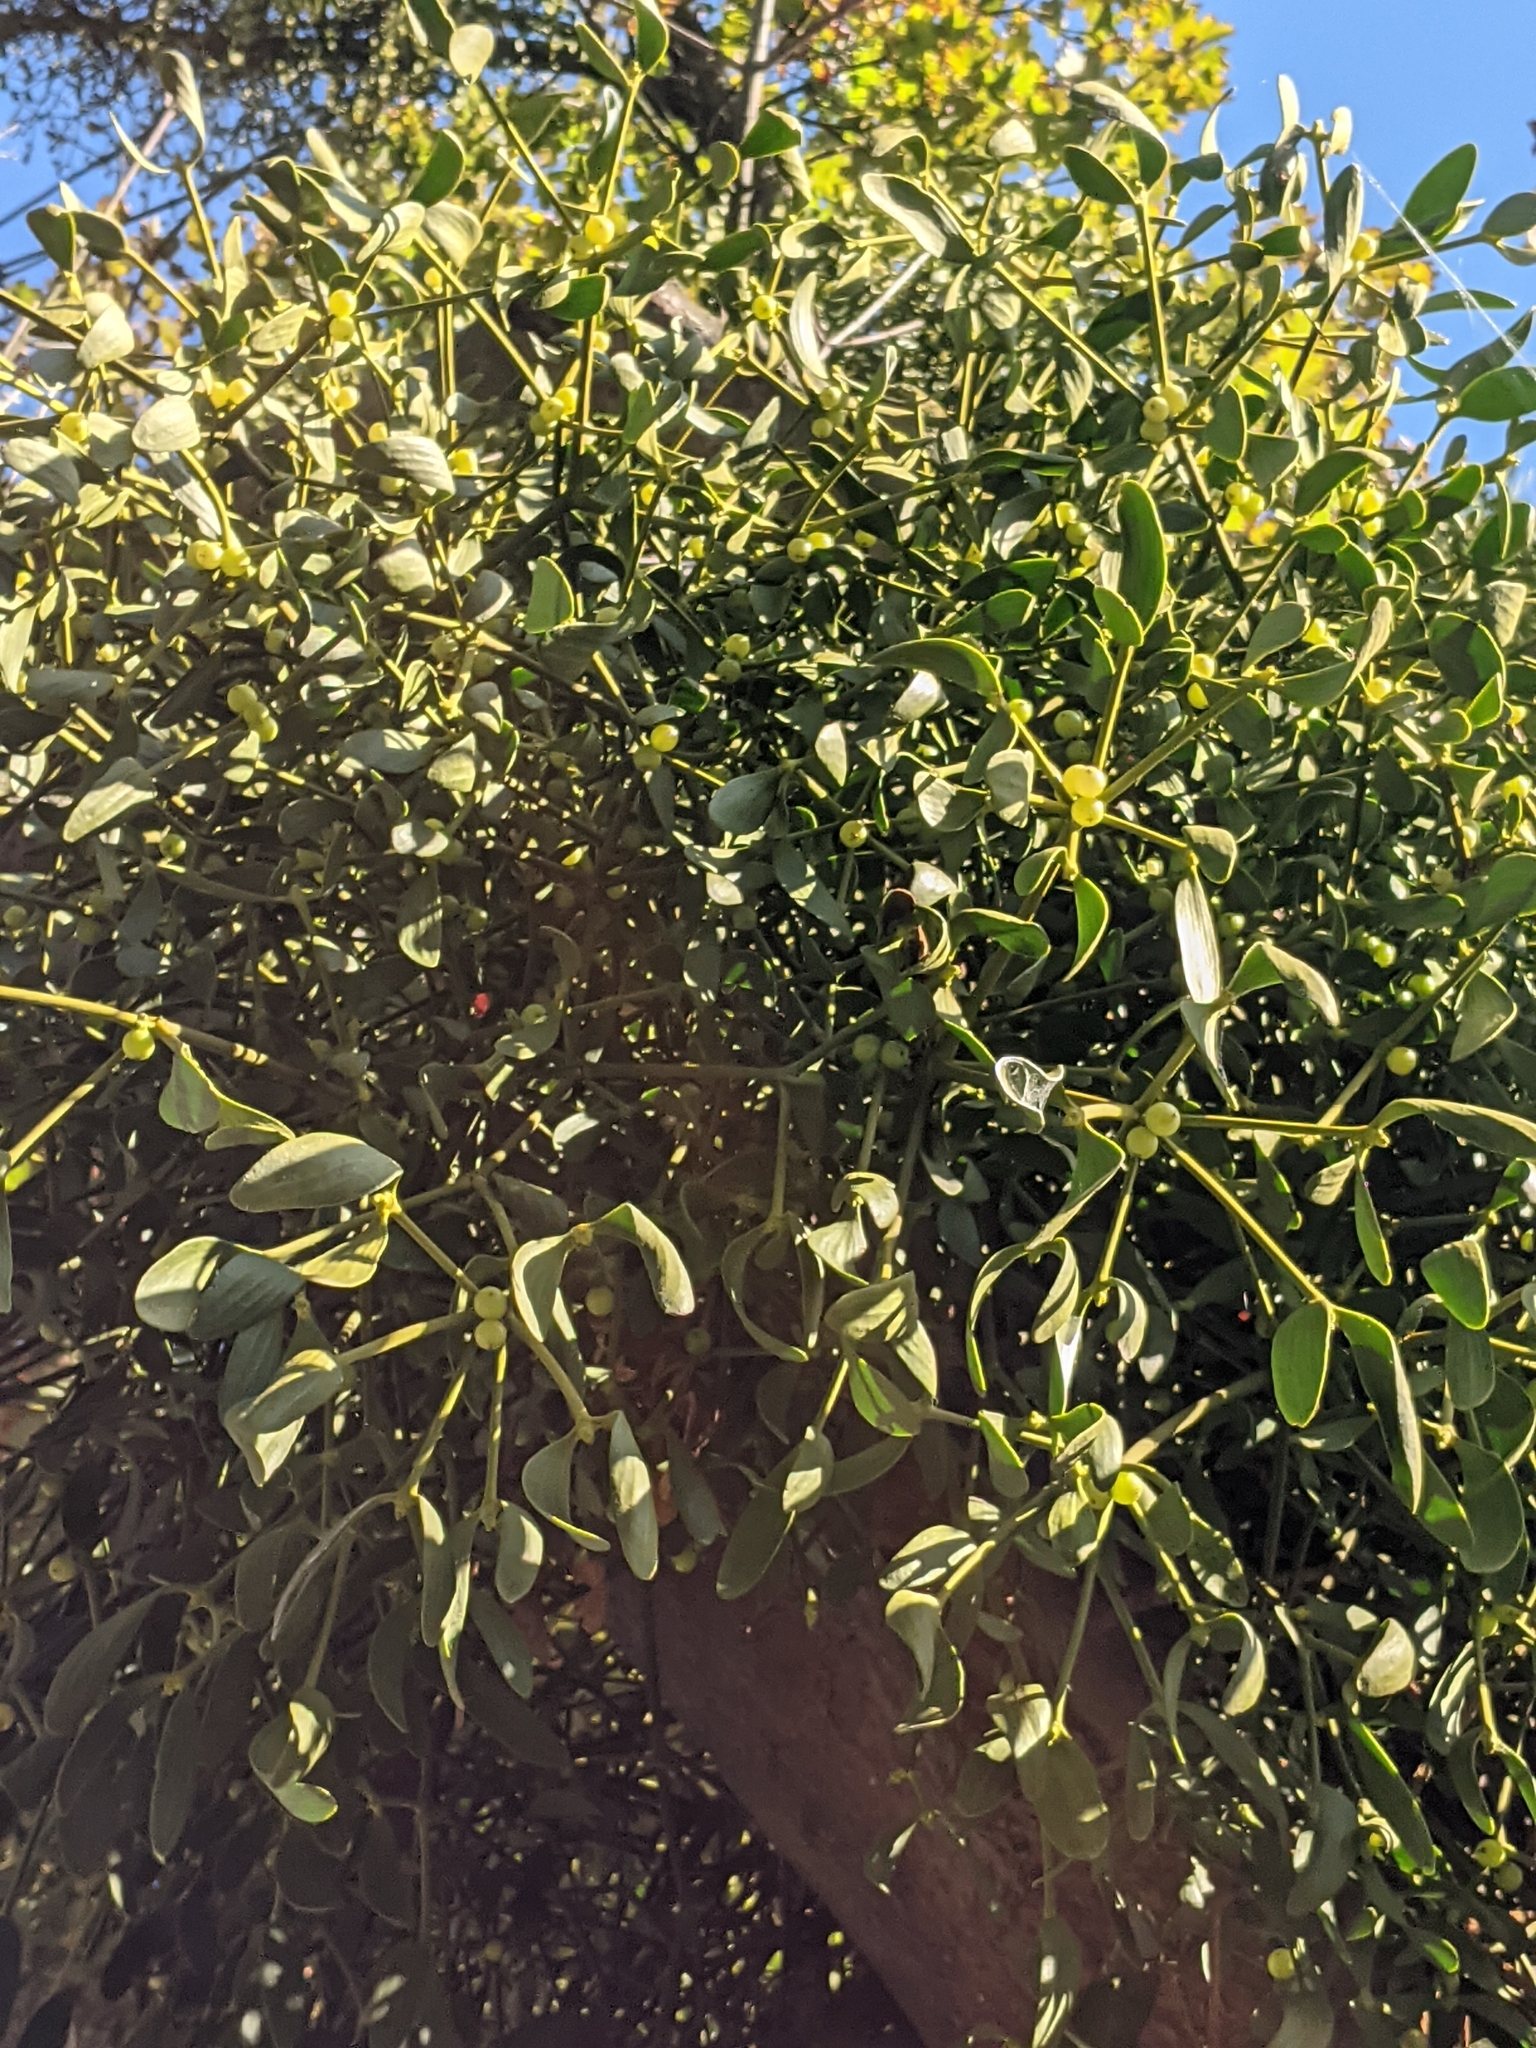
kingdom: Plantae
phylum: Tracheophyta
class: Magnoliopsida
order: Santalales
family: Viscaceae
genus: Viscum
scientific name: Viscum album
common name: Mistletoe
